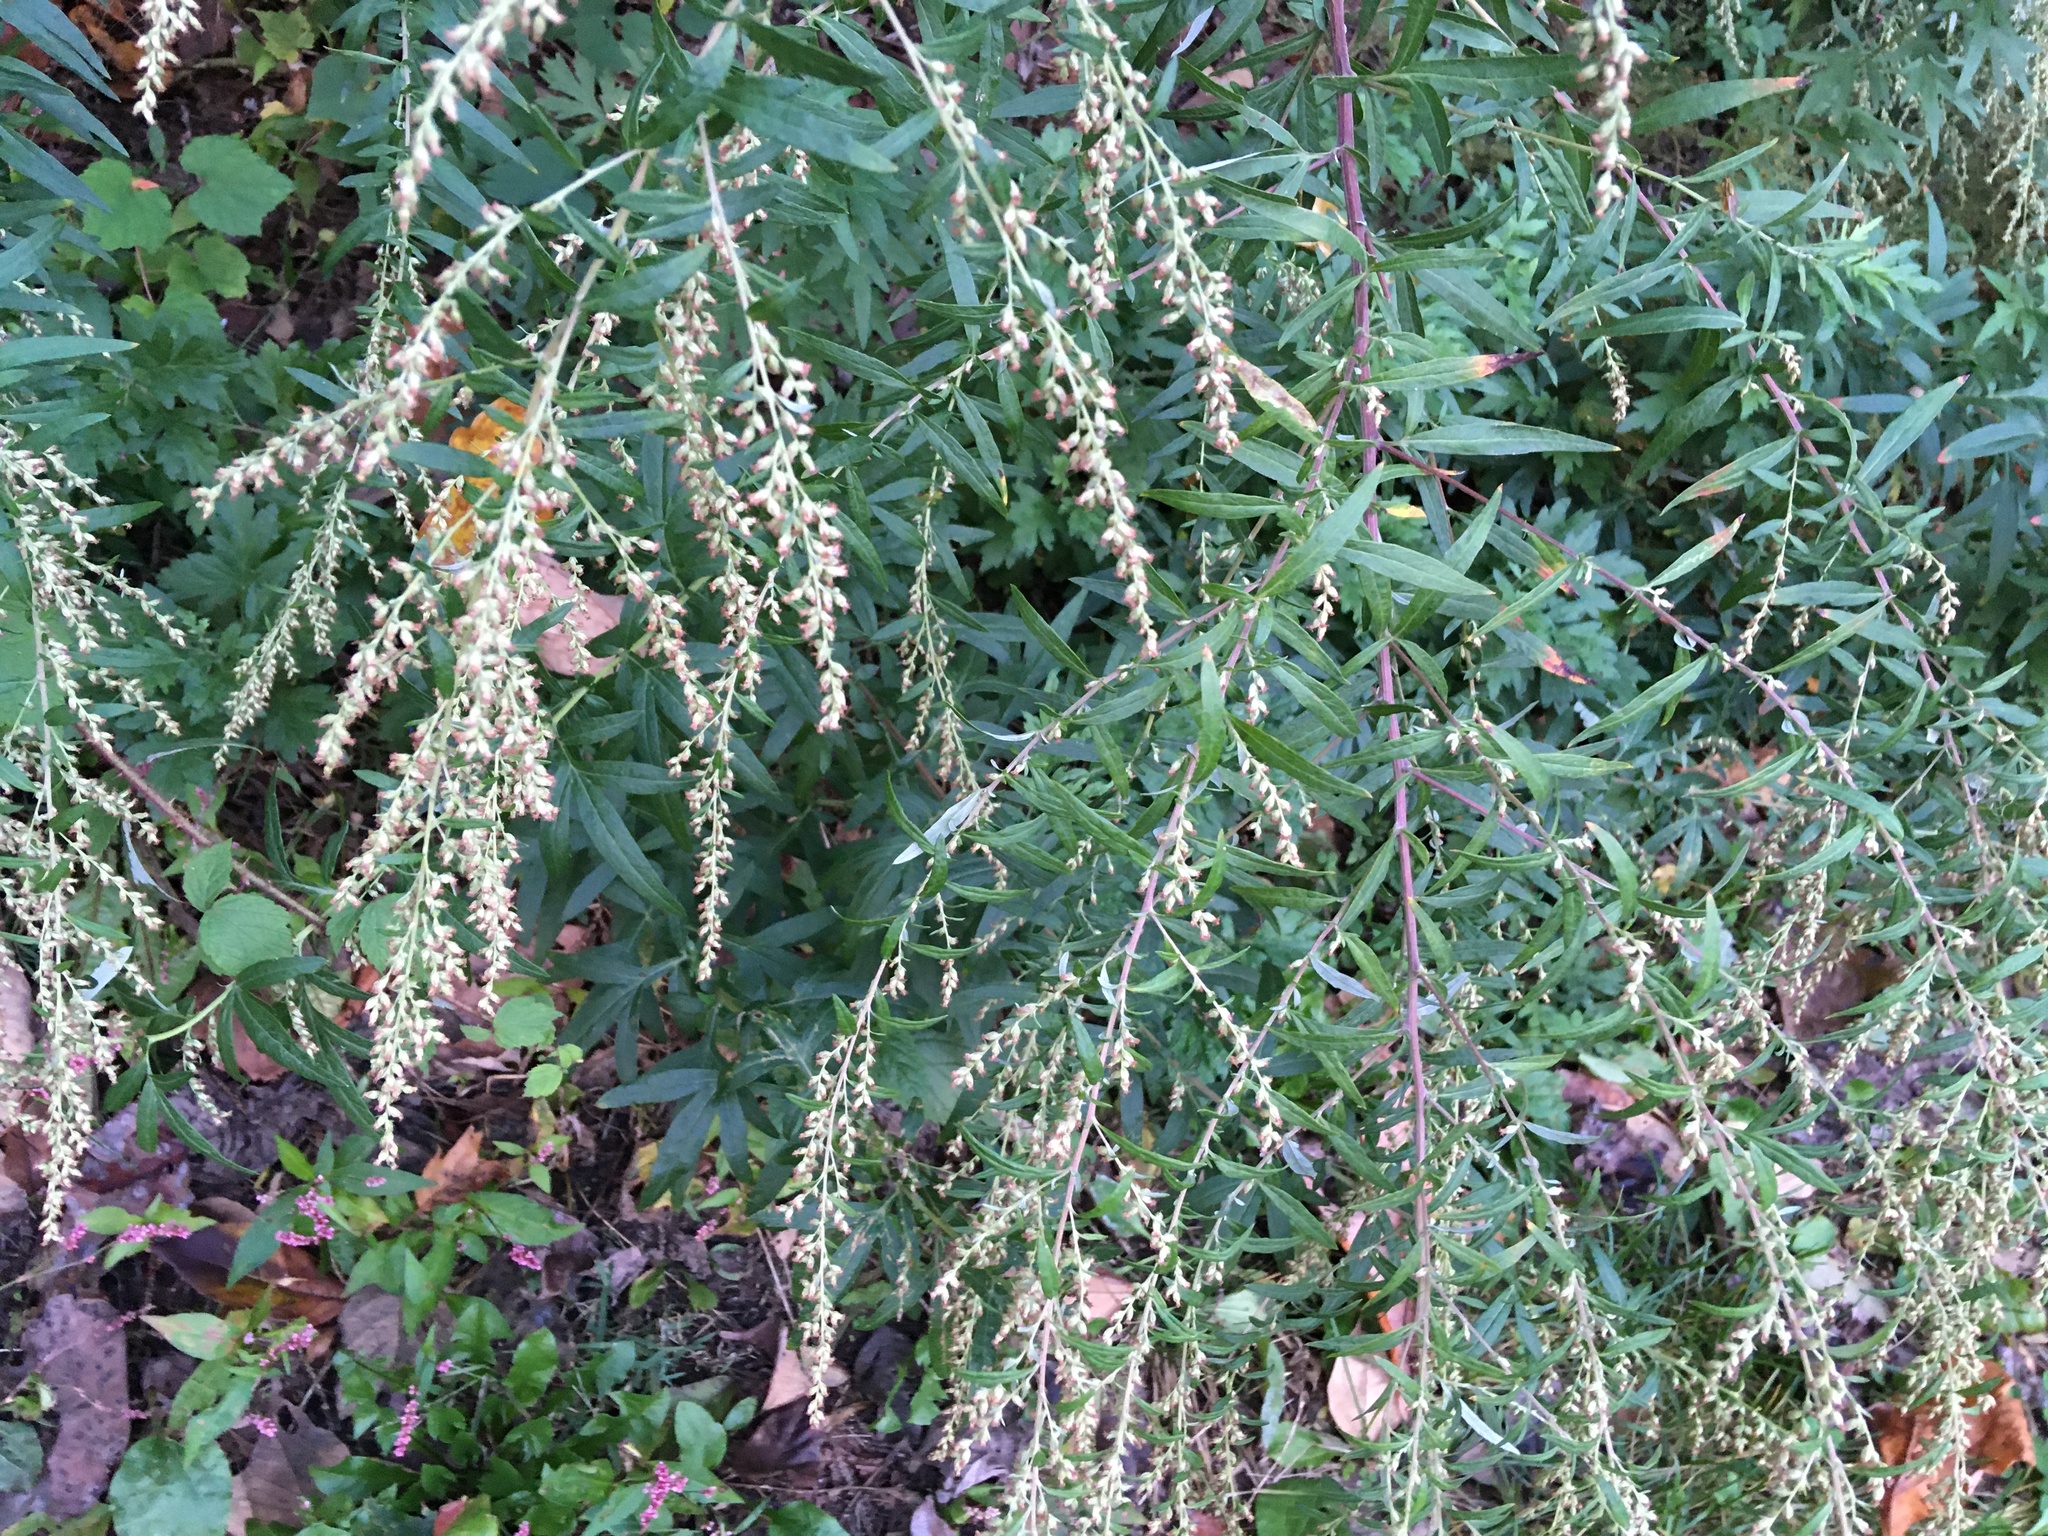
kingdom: Plantae
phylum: Tracheophyta
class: Magnoliopsida
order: Asterales
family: Asteraceae
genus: Artemisia
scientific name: Artemisia vulgaris
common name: Mugwort
